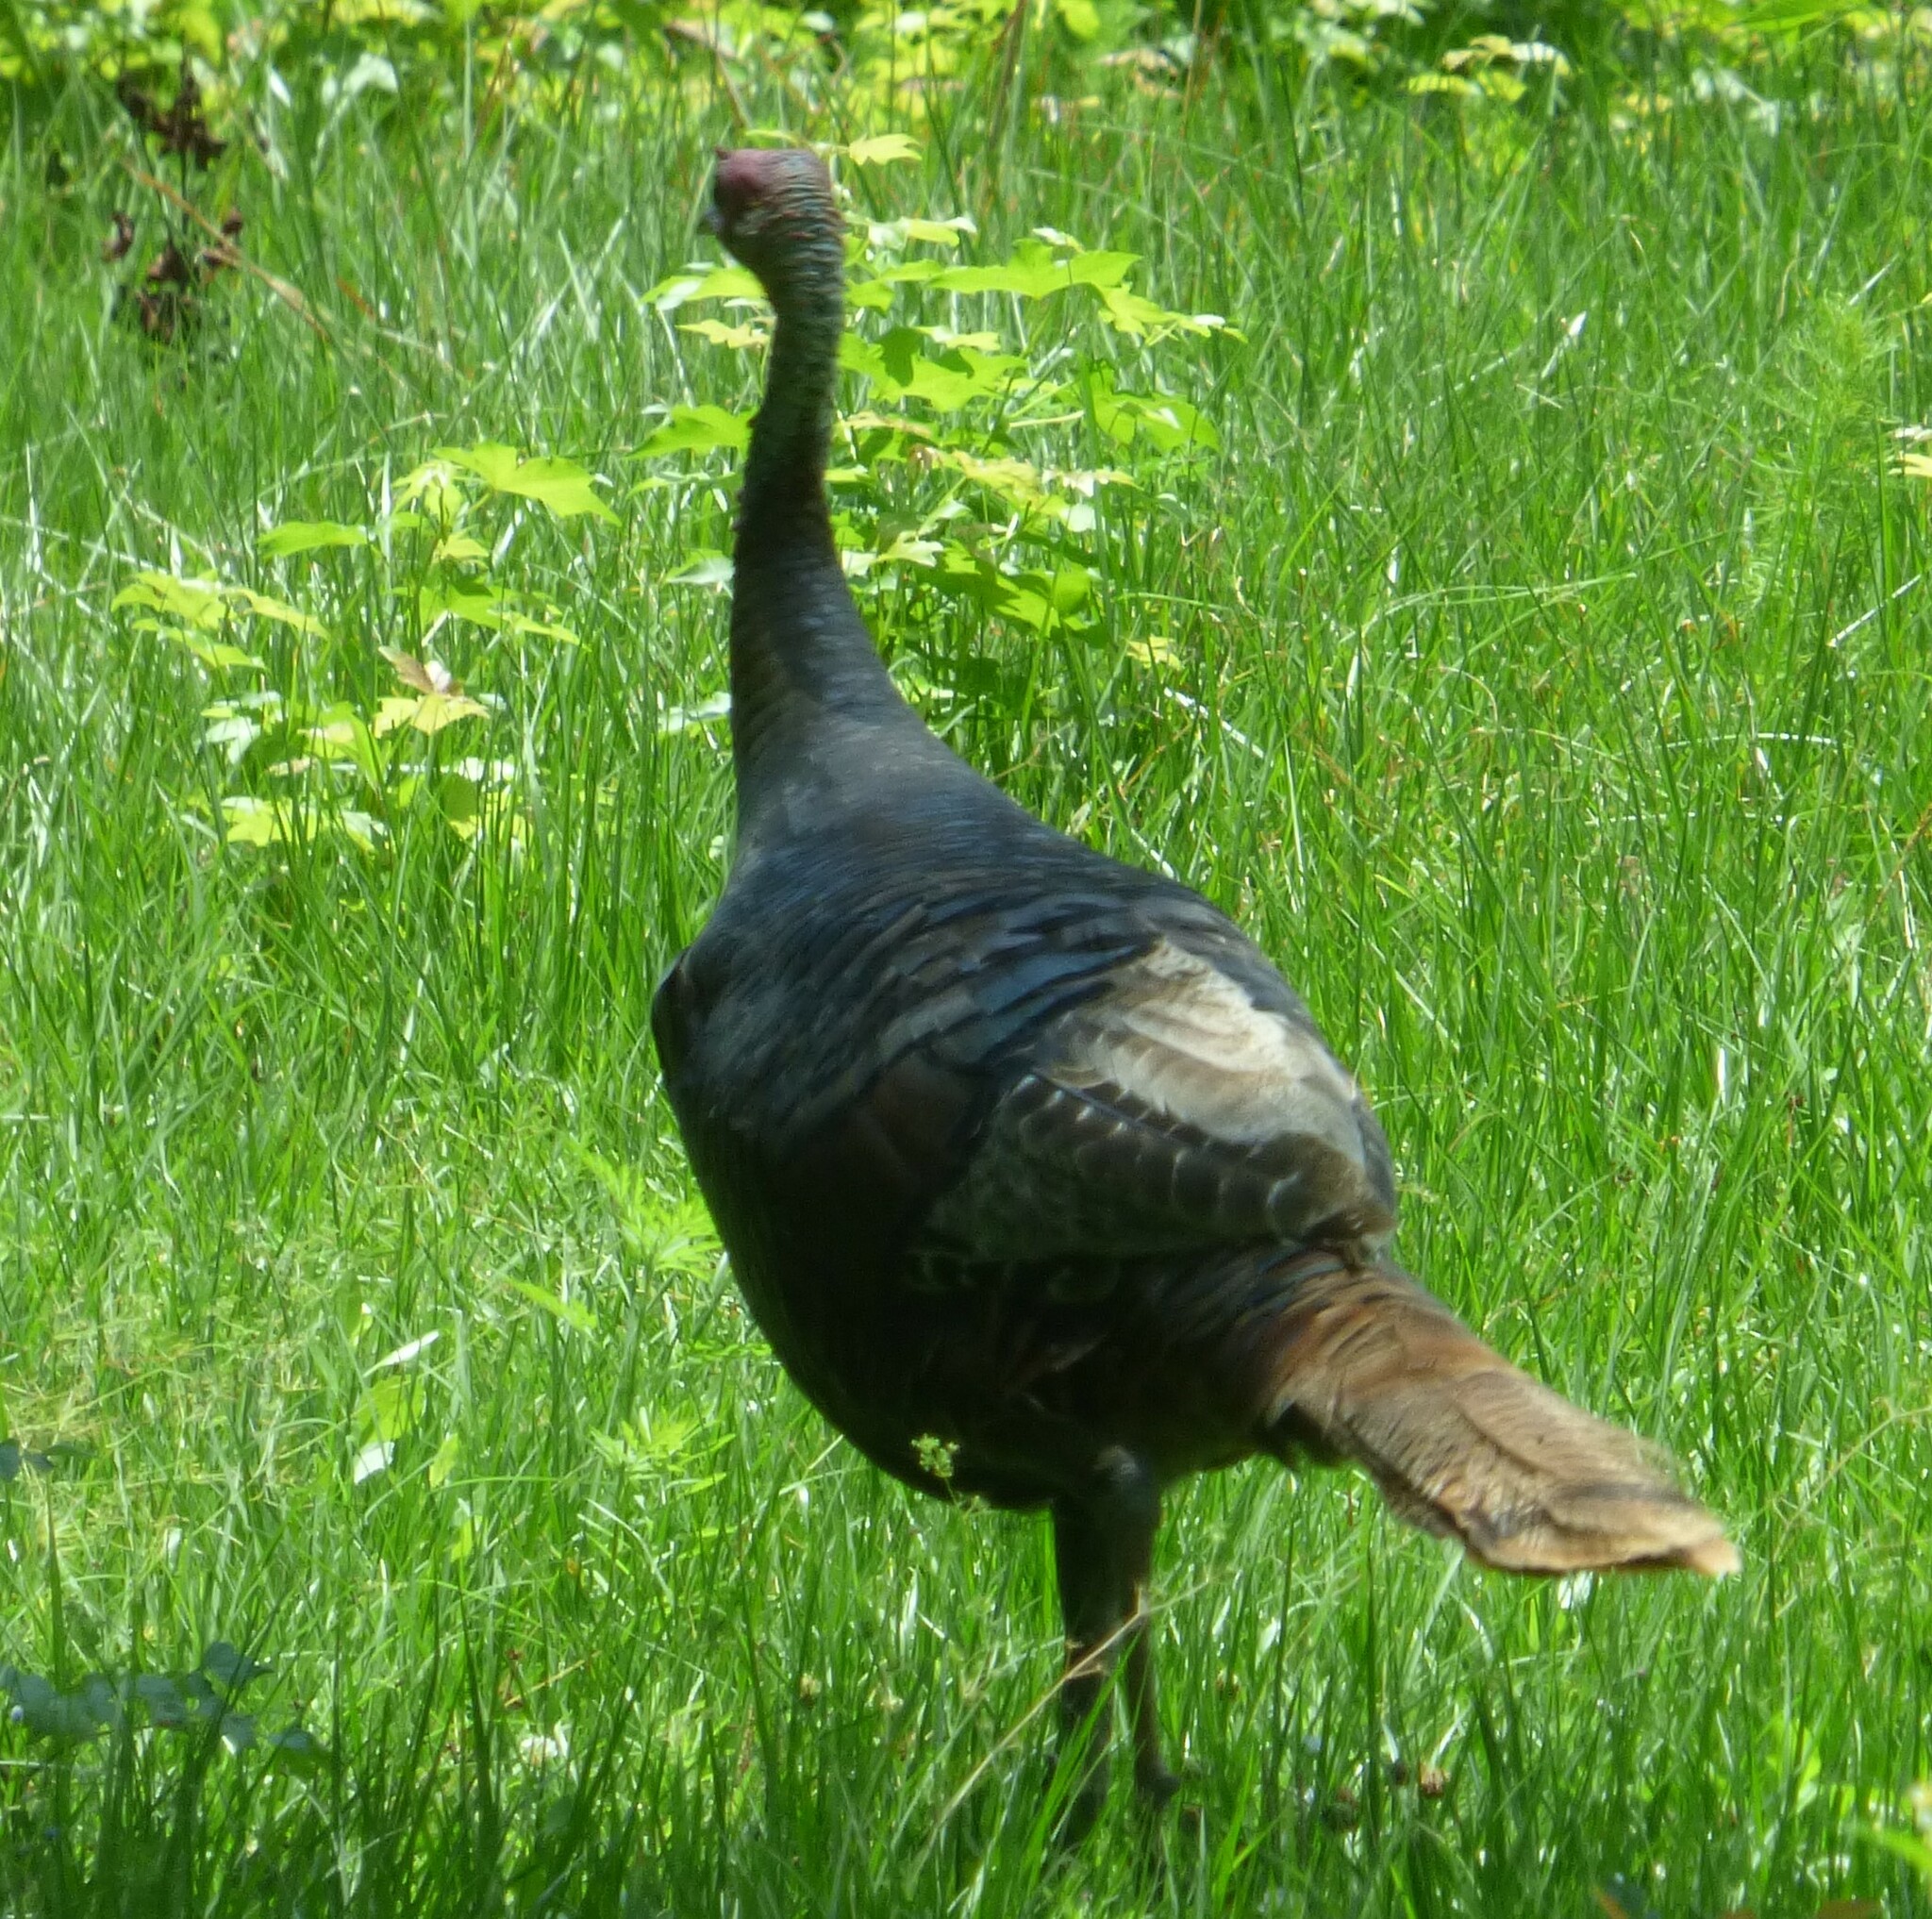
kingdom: Animalia
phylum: Chordata
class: Aves
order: Galliformes
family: Phasianidae
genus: Meleagris
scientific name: Meleagris gallopavo
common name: Wild turkey
